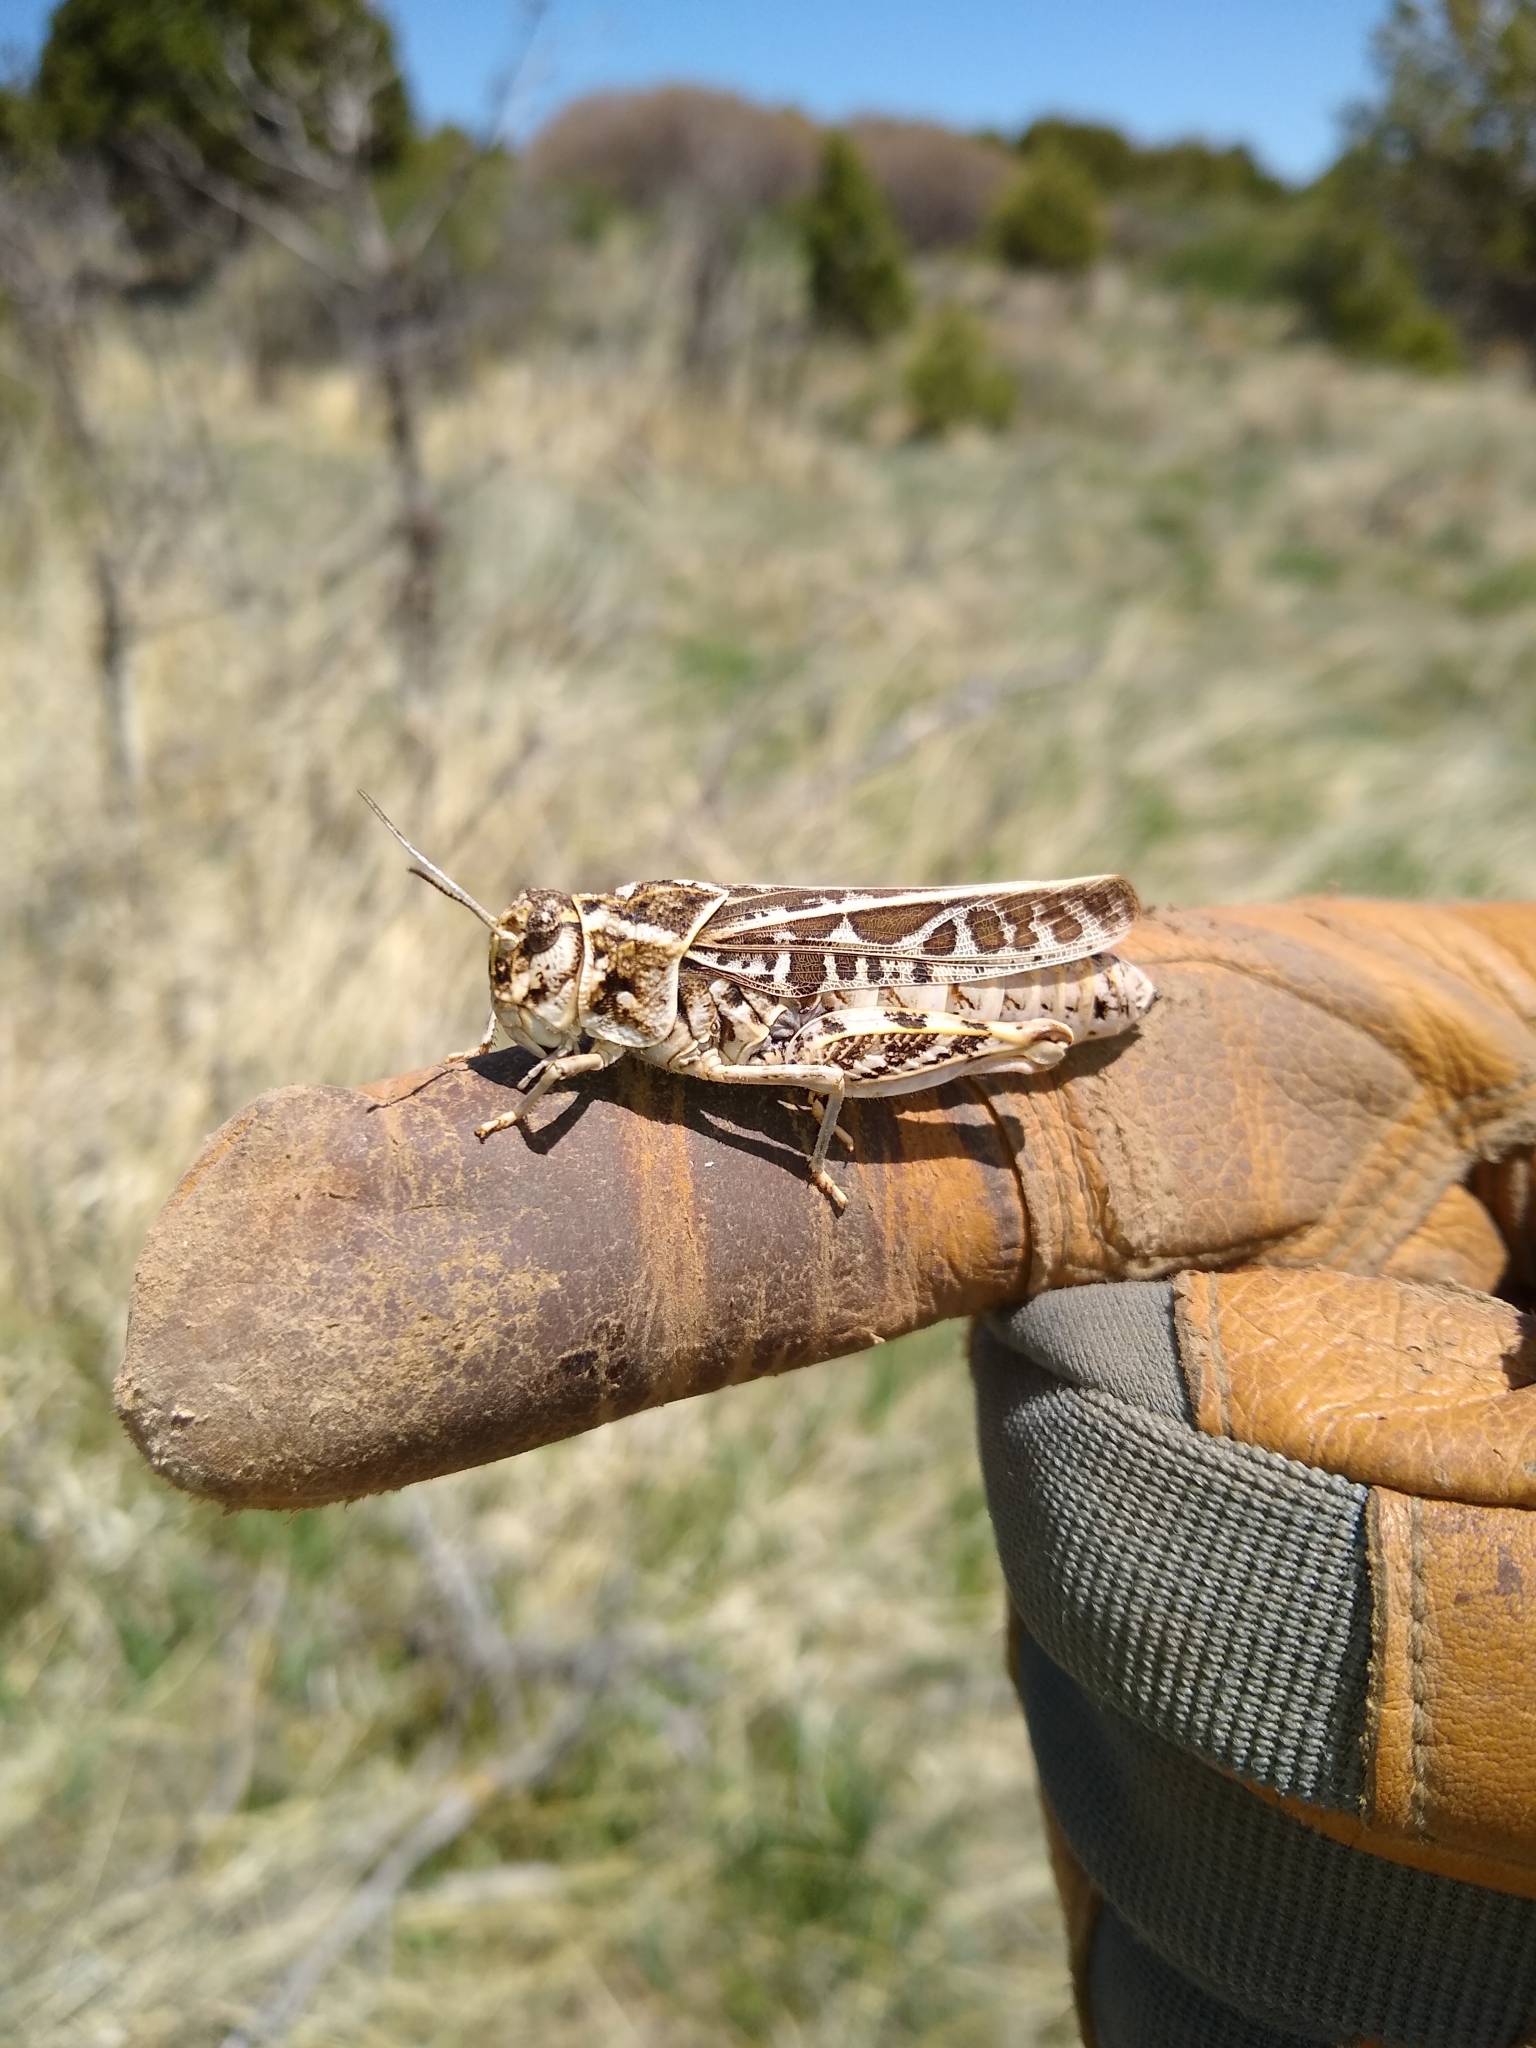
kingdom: Animalia
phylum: Arthropoda
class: Insecta
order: Orthoptera
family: Acrididae
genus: Xanthippus
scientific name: Xanthippus corallipes
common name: Redshanked grasshopper
